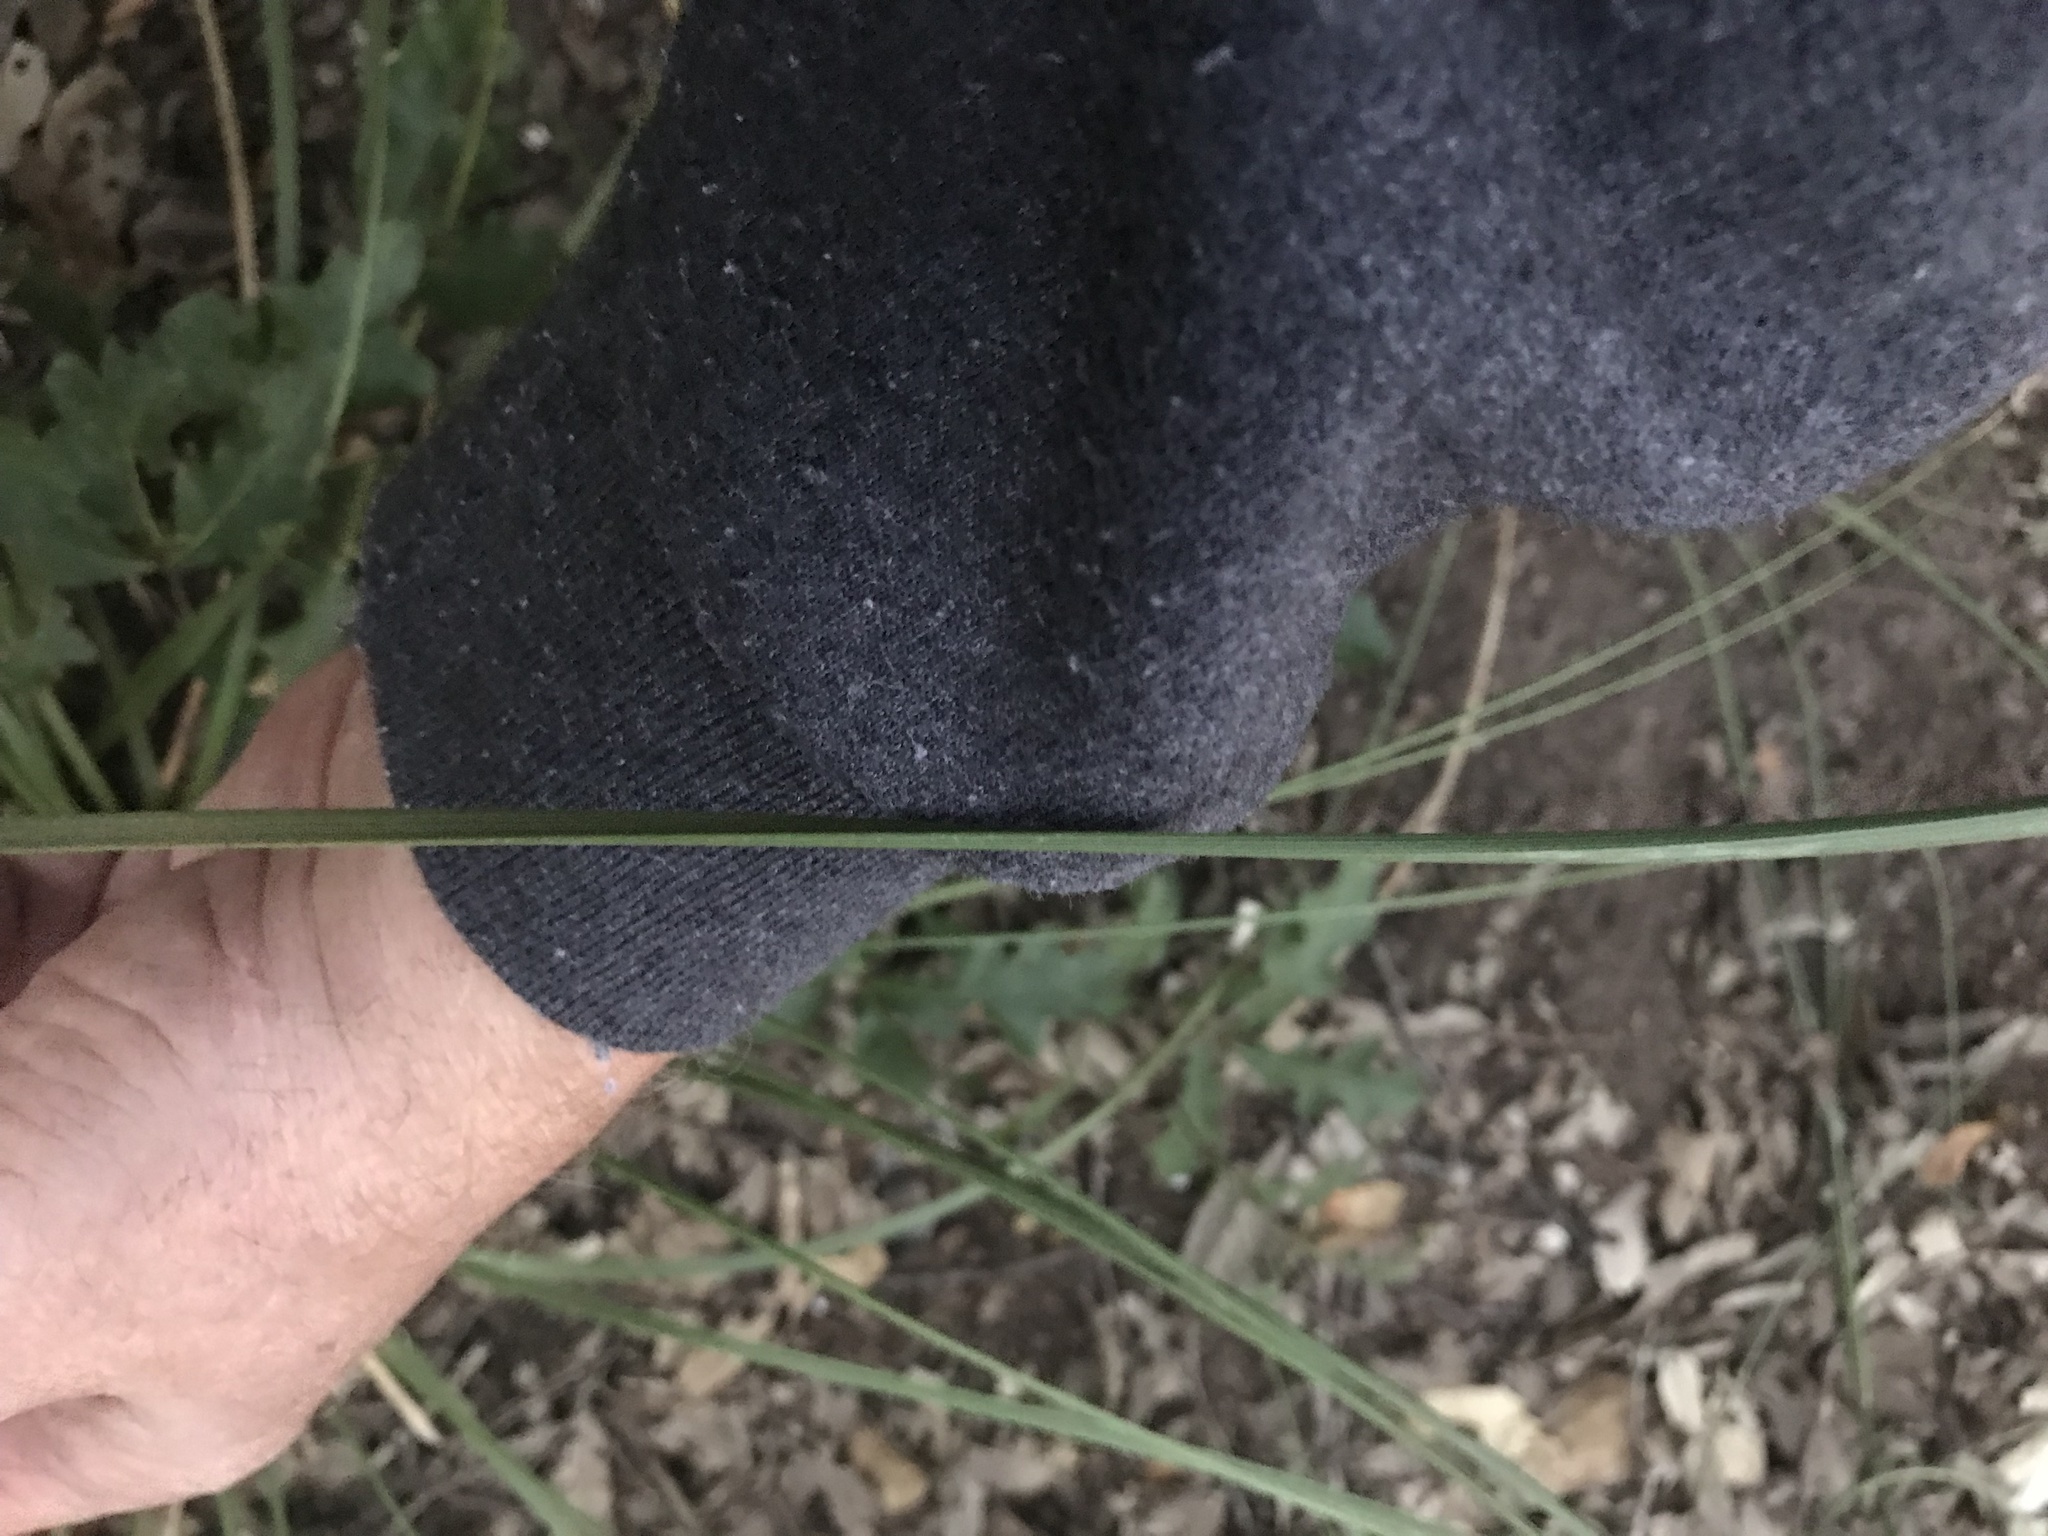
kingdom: Plantae
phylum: Tracheophyta
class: Liliopsida
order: Asparagales
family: Asparagaceae
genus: Nolina
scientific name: Nolina texana
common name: Texas sacahuiste
